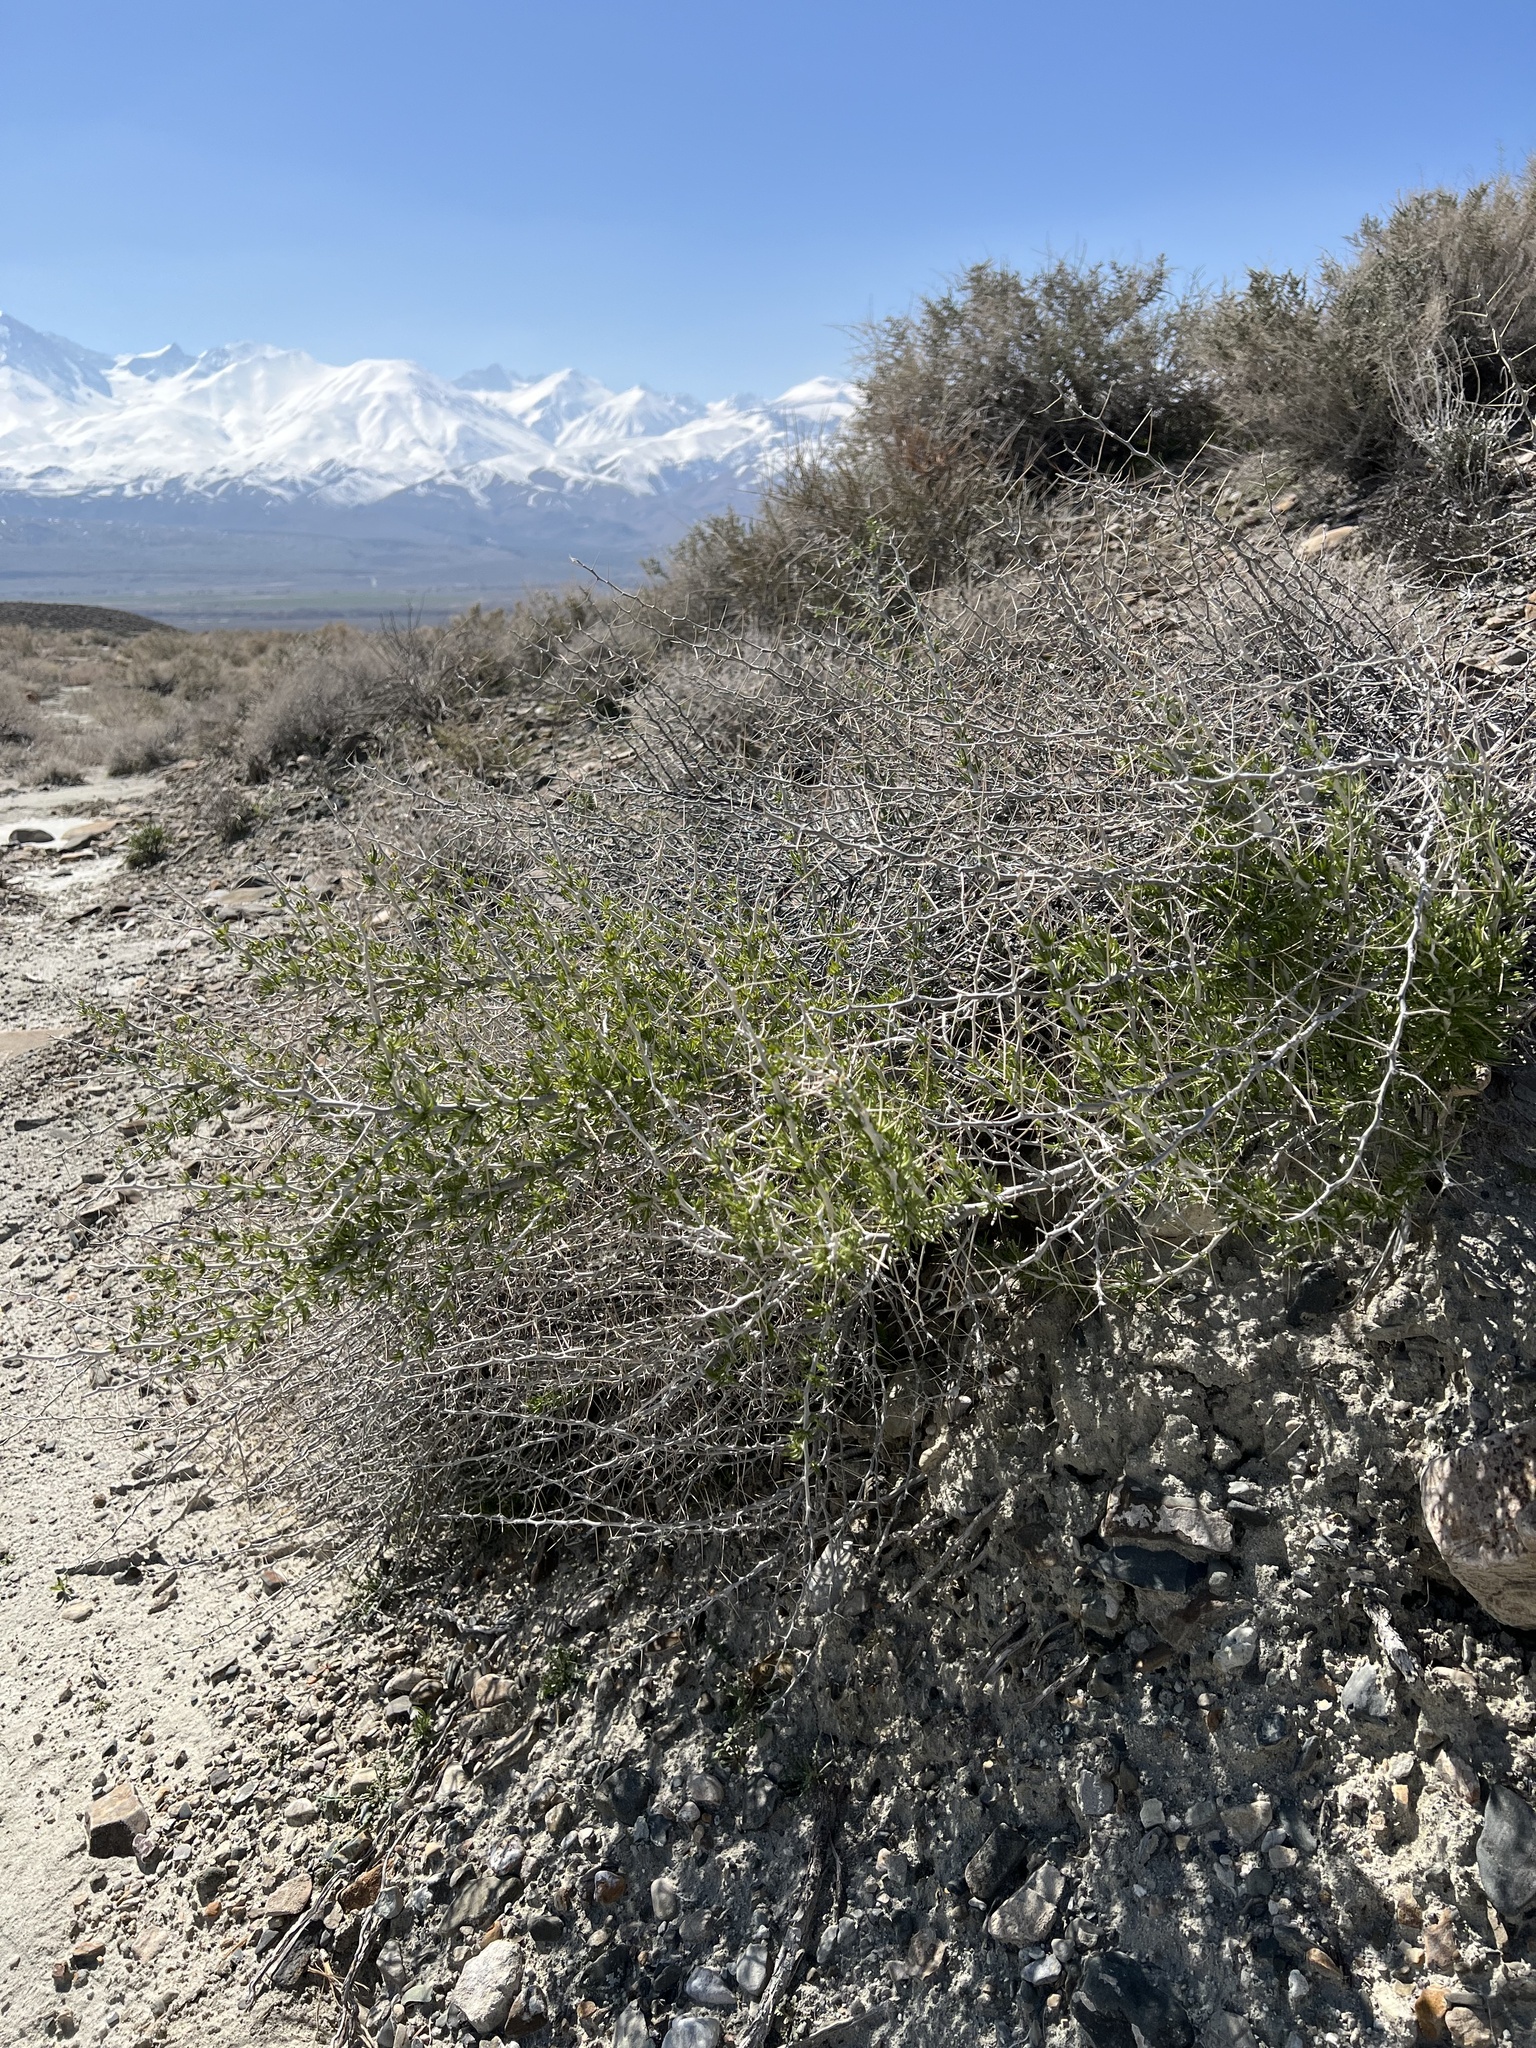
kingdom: Plantae
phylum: Tracheophyta
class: Magnoliopsida
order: Asterales
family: Asteraceae
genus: Tetradymia
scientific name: Tetradymia axillaris
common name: Long-spine horsebrush
